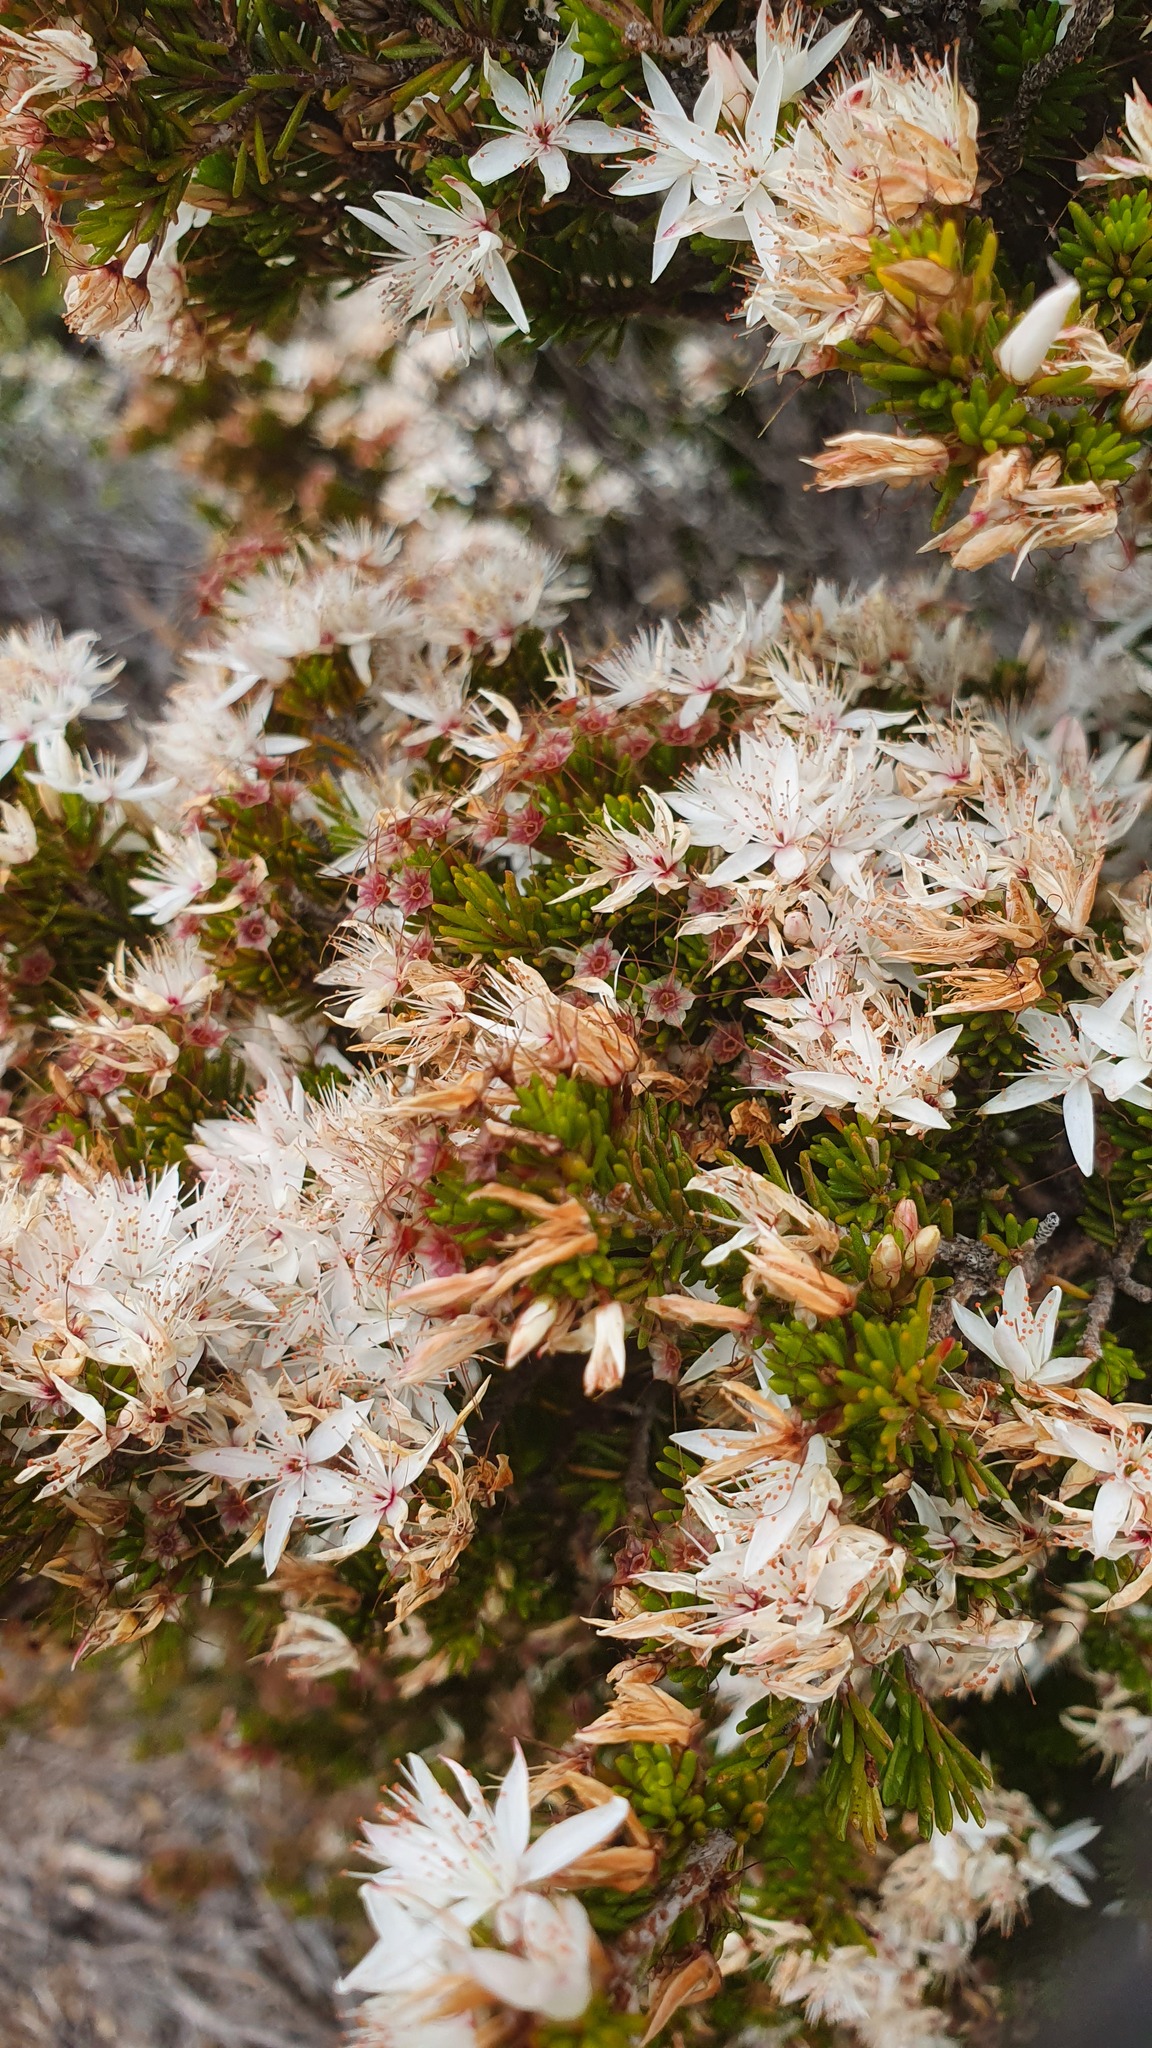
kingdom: Plantae
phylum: Tracheophyta
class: Magnoliopsida
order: Myrtales
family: Myrtaceae
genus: Calytrix
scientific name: Calytrix tetragona
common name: Common fringe myrtle
